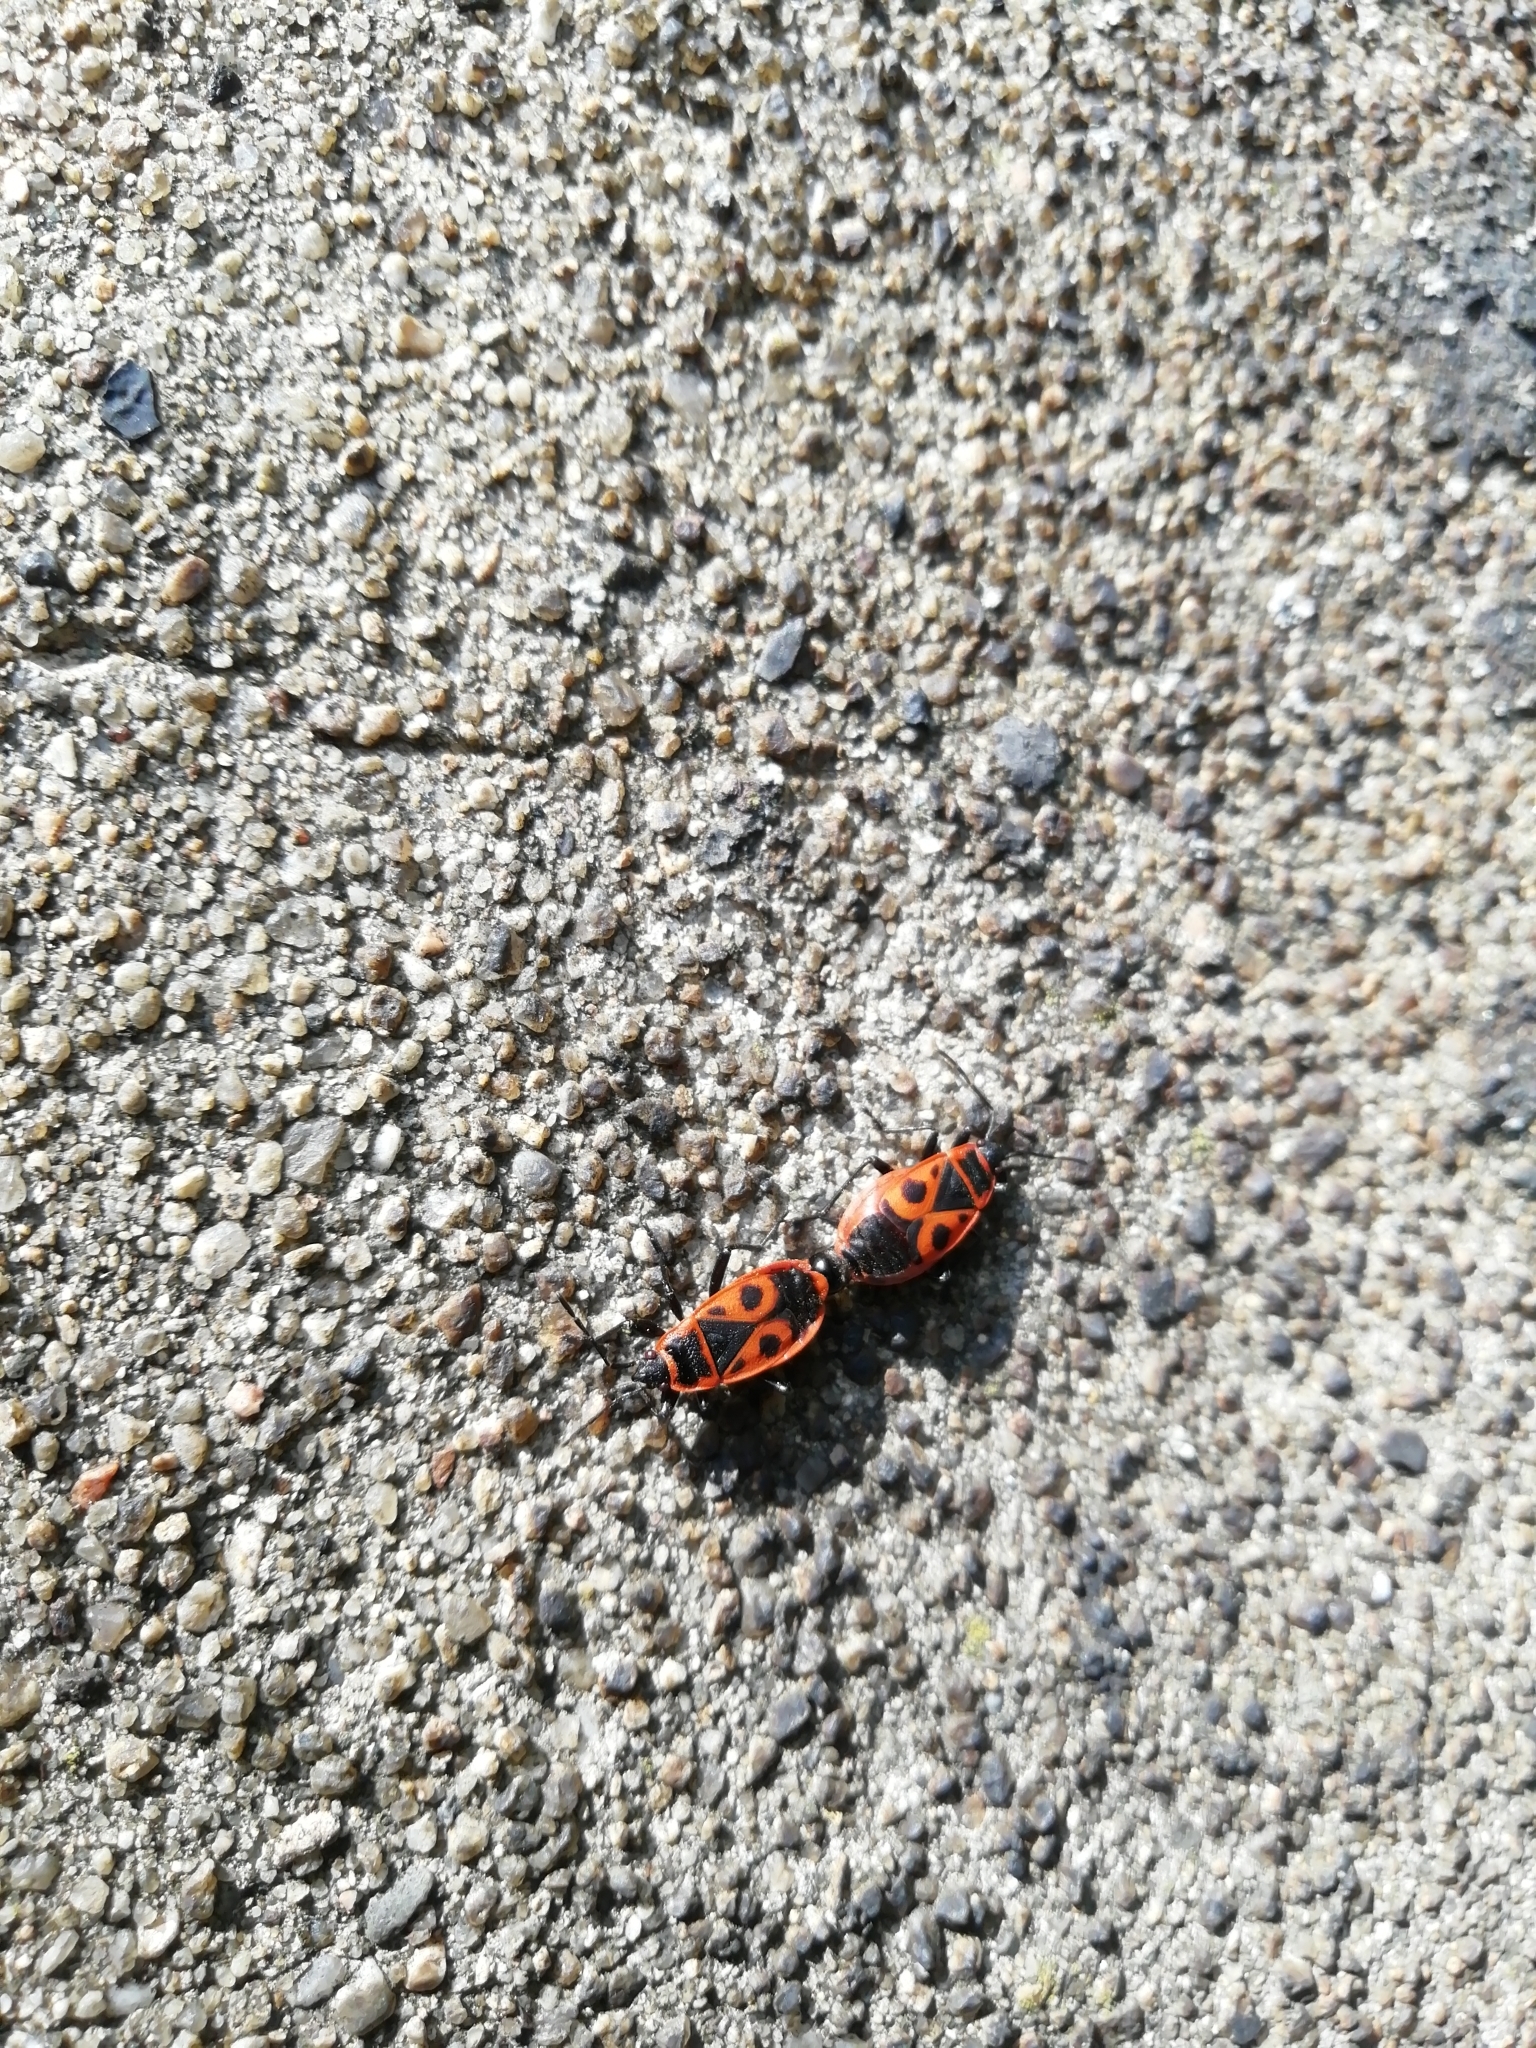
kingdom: Animalia
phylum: Arthropoda
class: Insecta
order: Hemiptera
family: Pyrrhocoridae
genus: Pyrrhocoris
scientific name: Pyrrhocoris apterus
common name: Firebug
